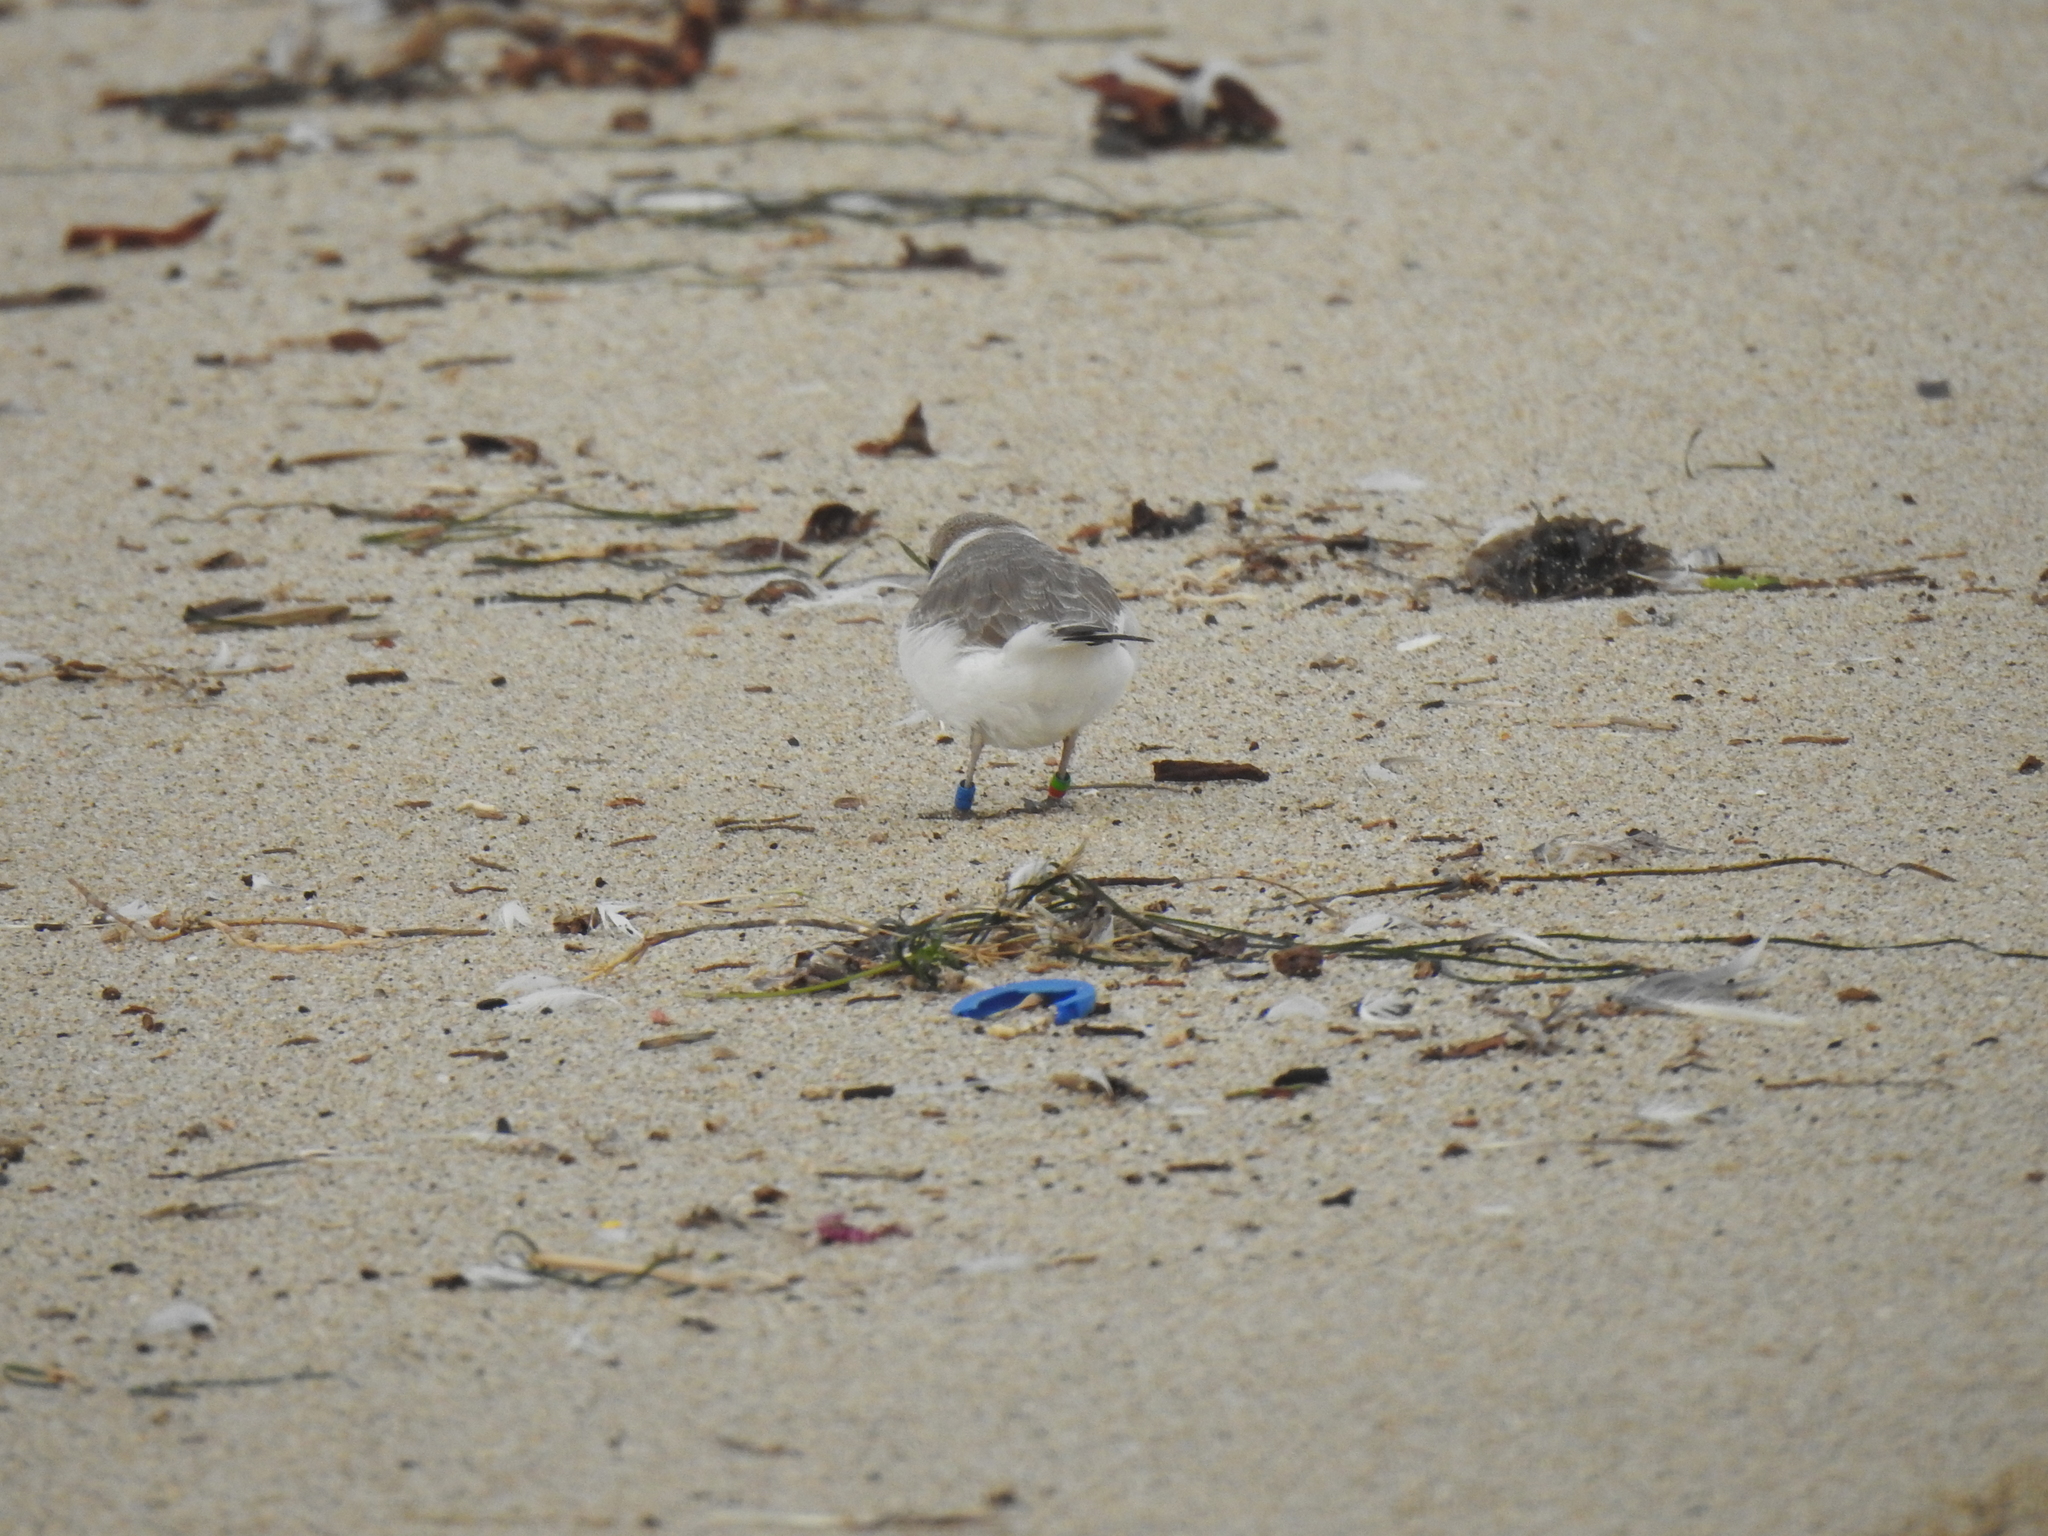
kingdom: Animalia
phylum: Chordata
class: Aves
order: Charadriiformes
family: Charadriidae
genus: Anarhynchus
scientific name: Anarhynchus
